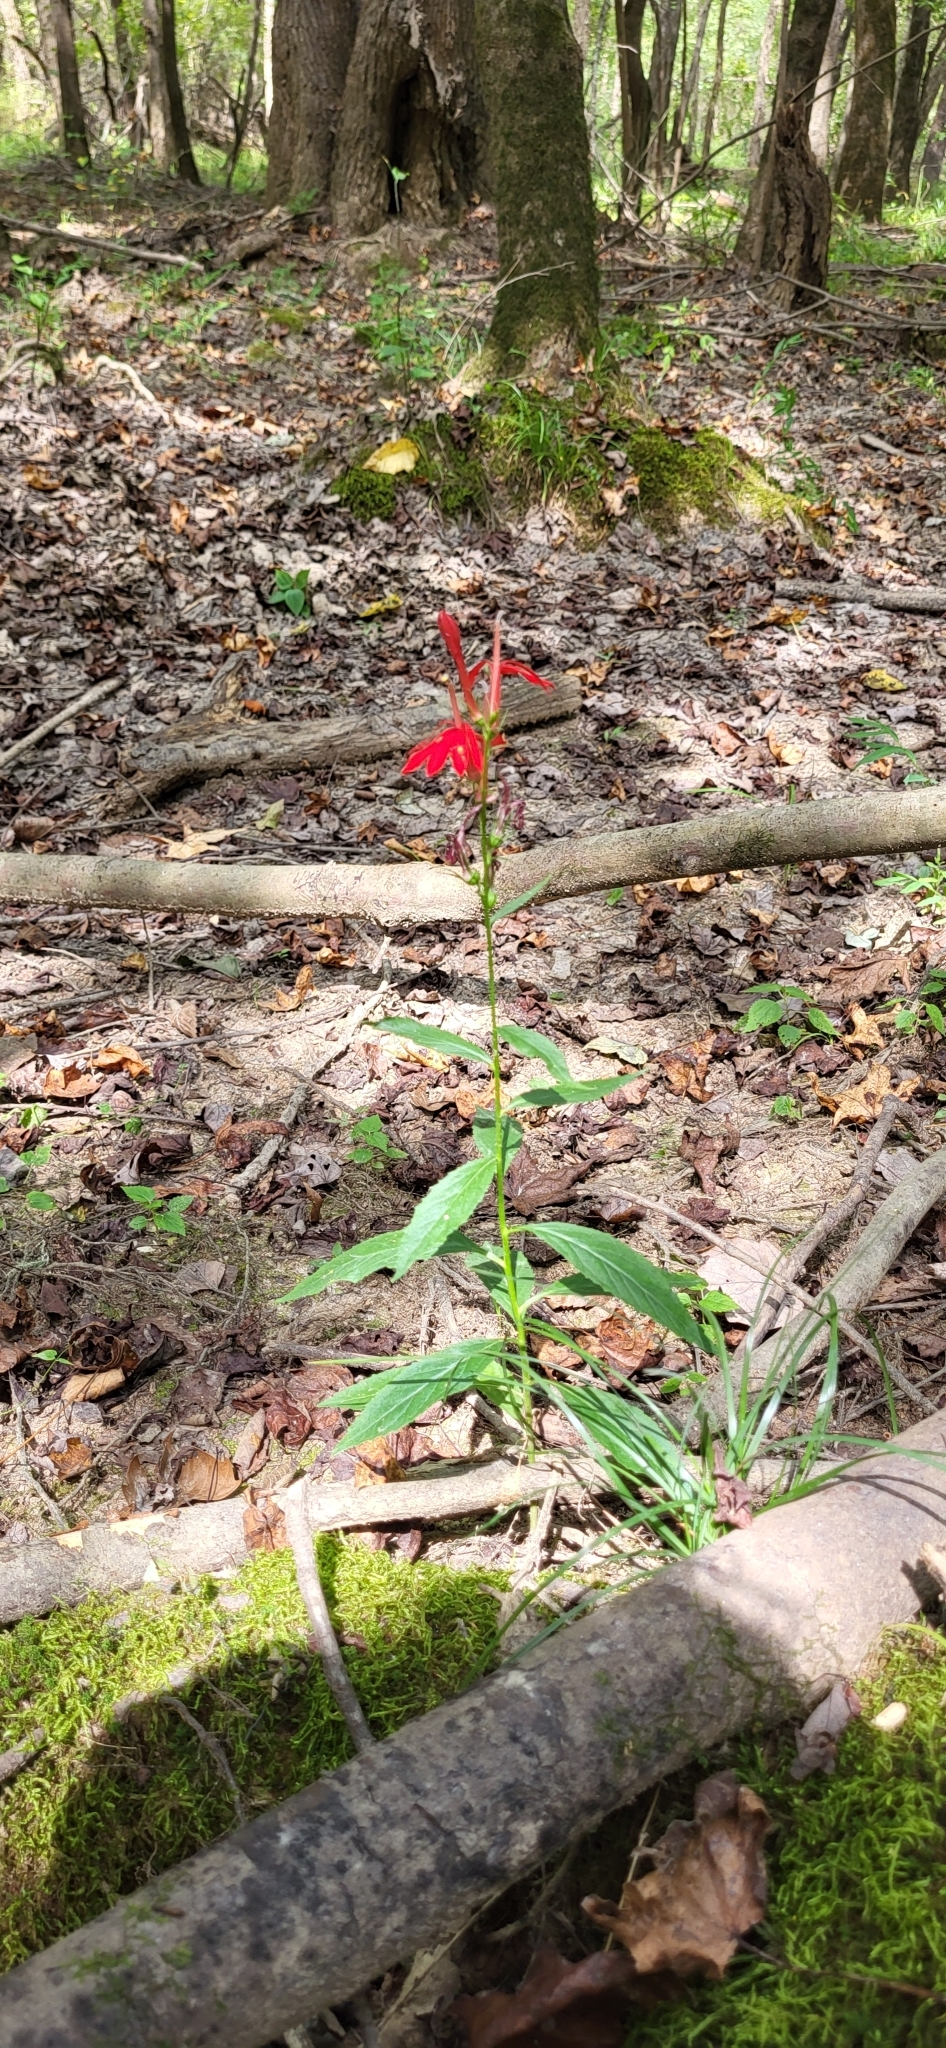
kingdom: Plantae
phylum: Tracheophyta
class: Magnoliopsida
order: Asterales
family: Campanulaceae
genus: Lobelia
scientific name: Lobelia cardinalis
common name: Cardinal flower
